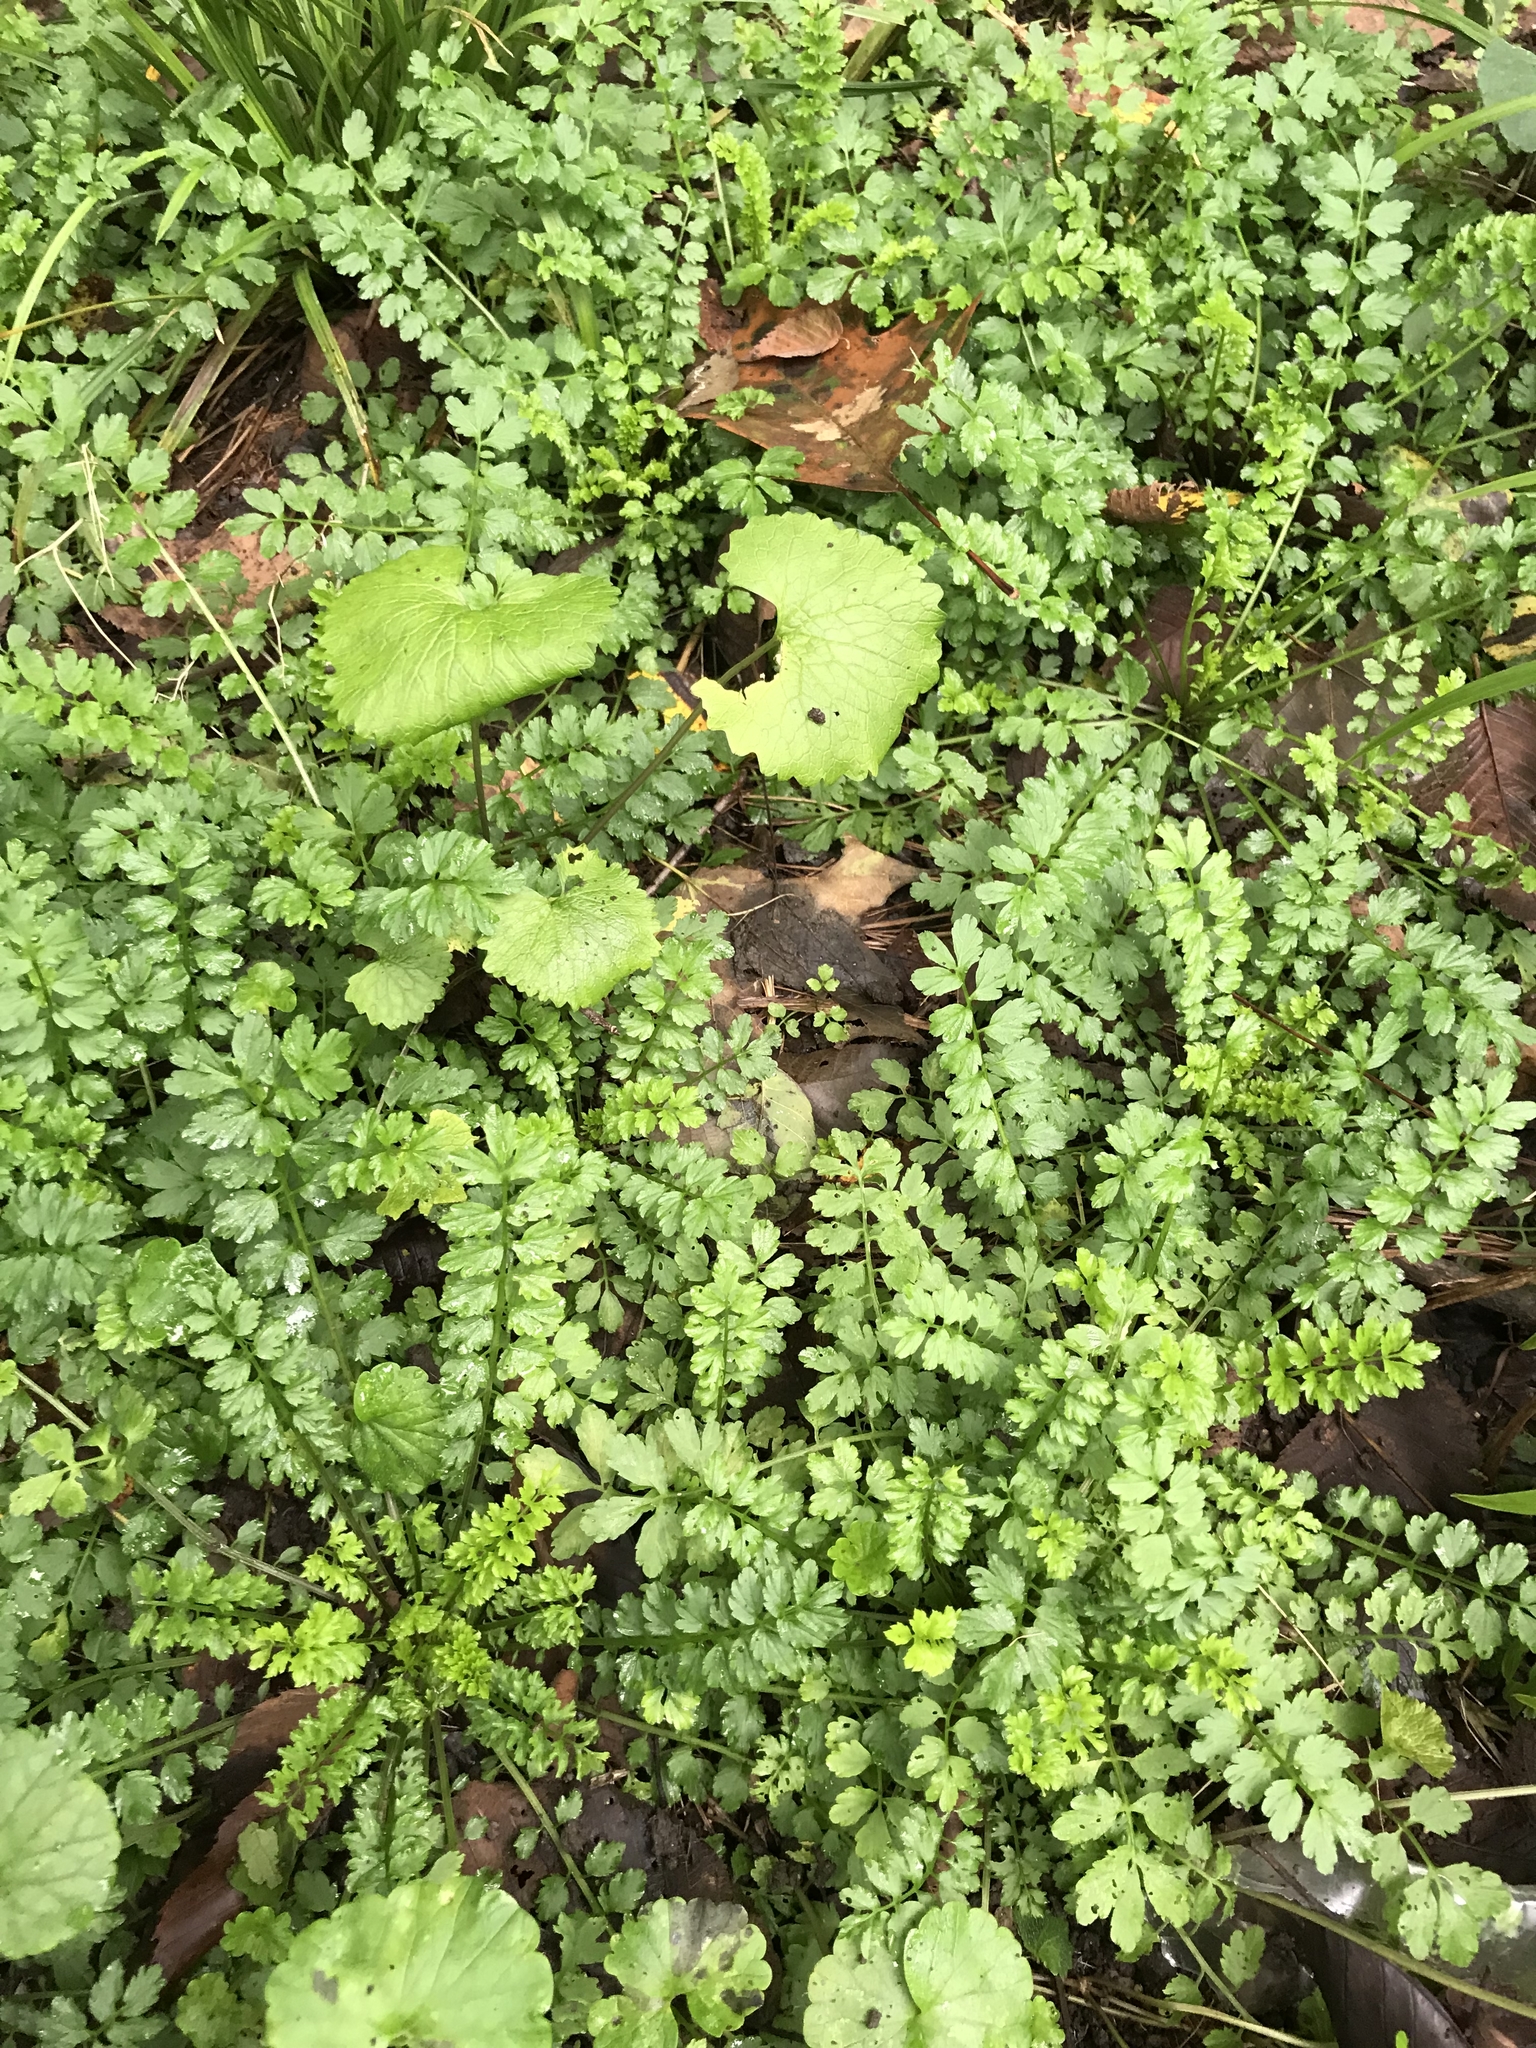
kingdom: Plantae
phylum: Tracheophyta
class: Magnoliopsida
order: Brassicales
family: Brassicaceae
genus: Cardamine
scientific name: Cardamine impatiens
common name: Narrow-leaved bitter-cress
